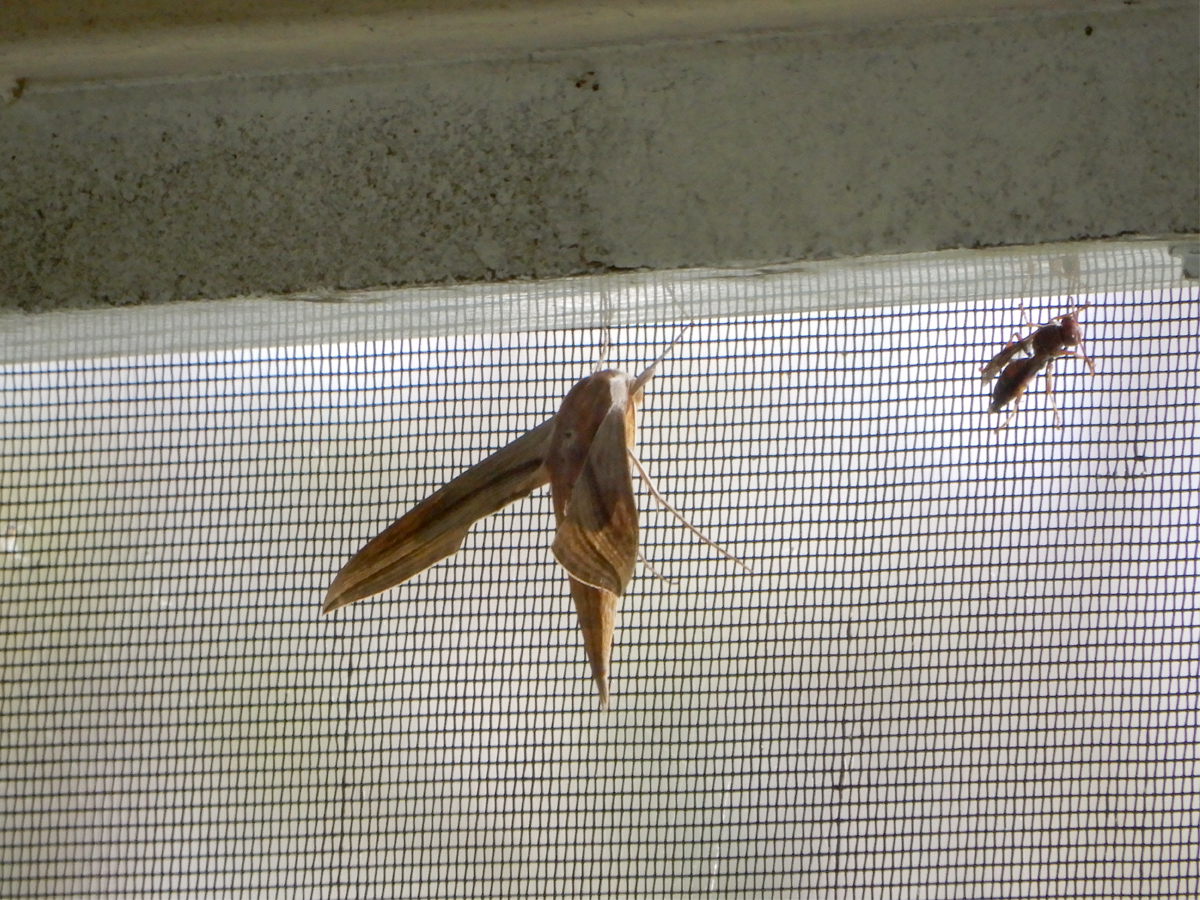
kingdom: Animalia
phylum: Arthropoda
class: Insecta
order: Lepidoptera
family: Sphingidae
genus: Xylophanes
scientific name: Xylophanes tersa
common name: Tersa sphinx
